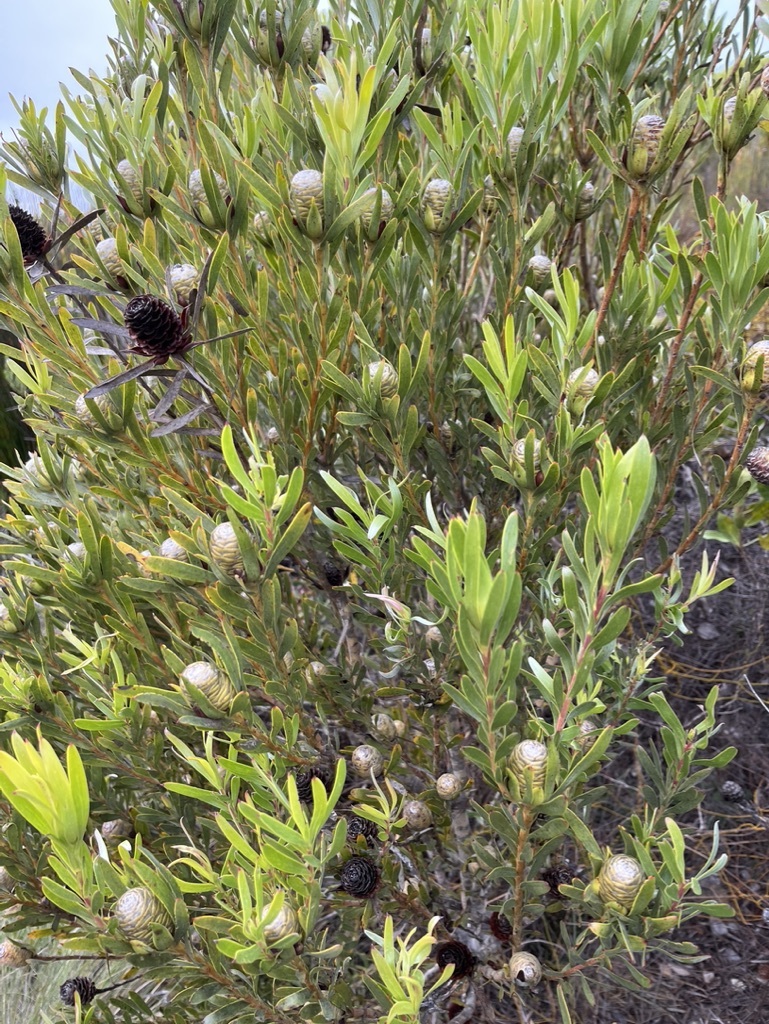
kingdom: Plantae
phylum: Tracheophyta
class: Magnoliopsida
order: Proteales
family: Proteaceae
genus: Leucadendron
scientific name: Leucadendron meridianum
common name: Limestone conebush
